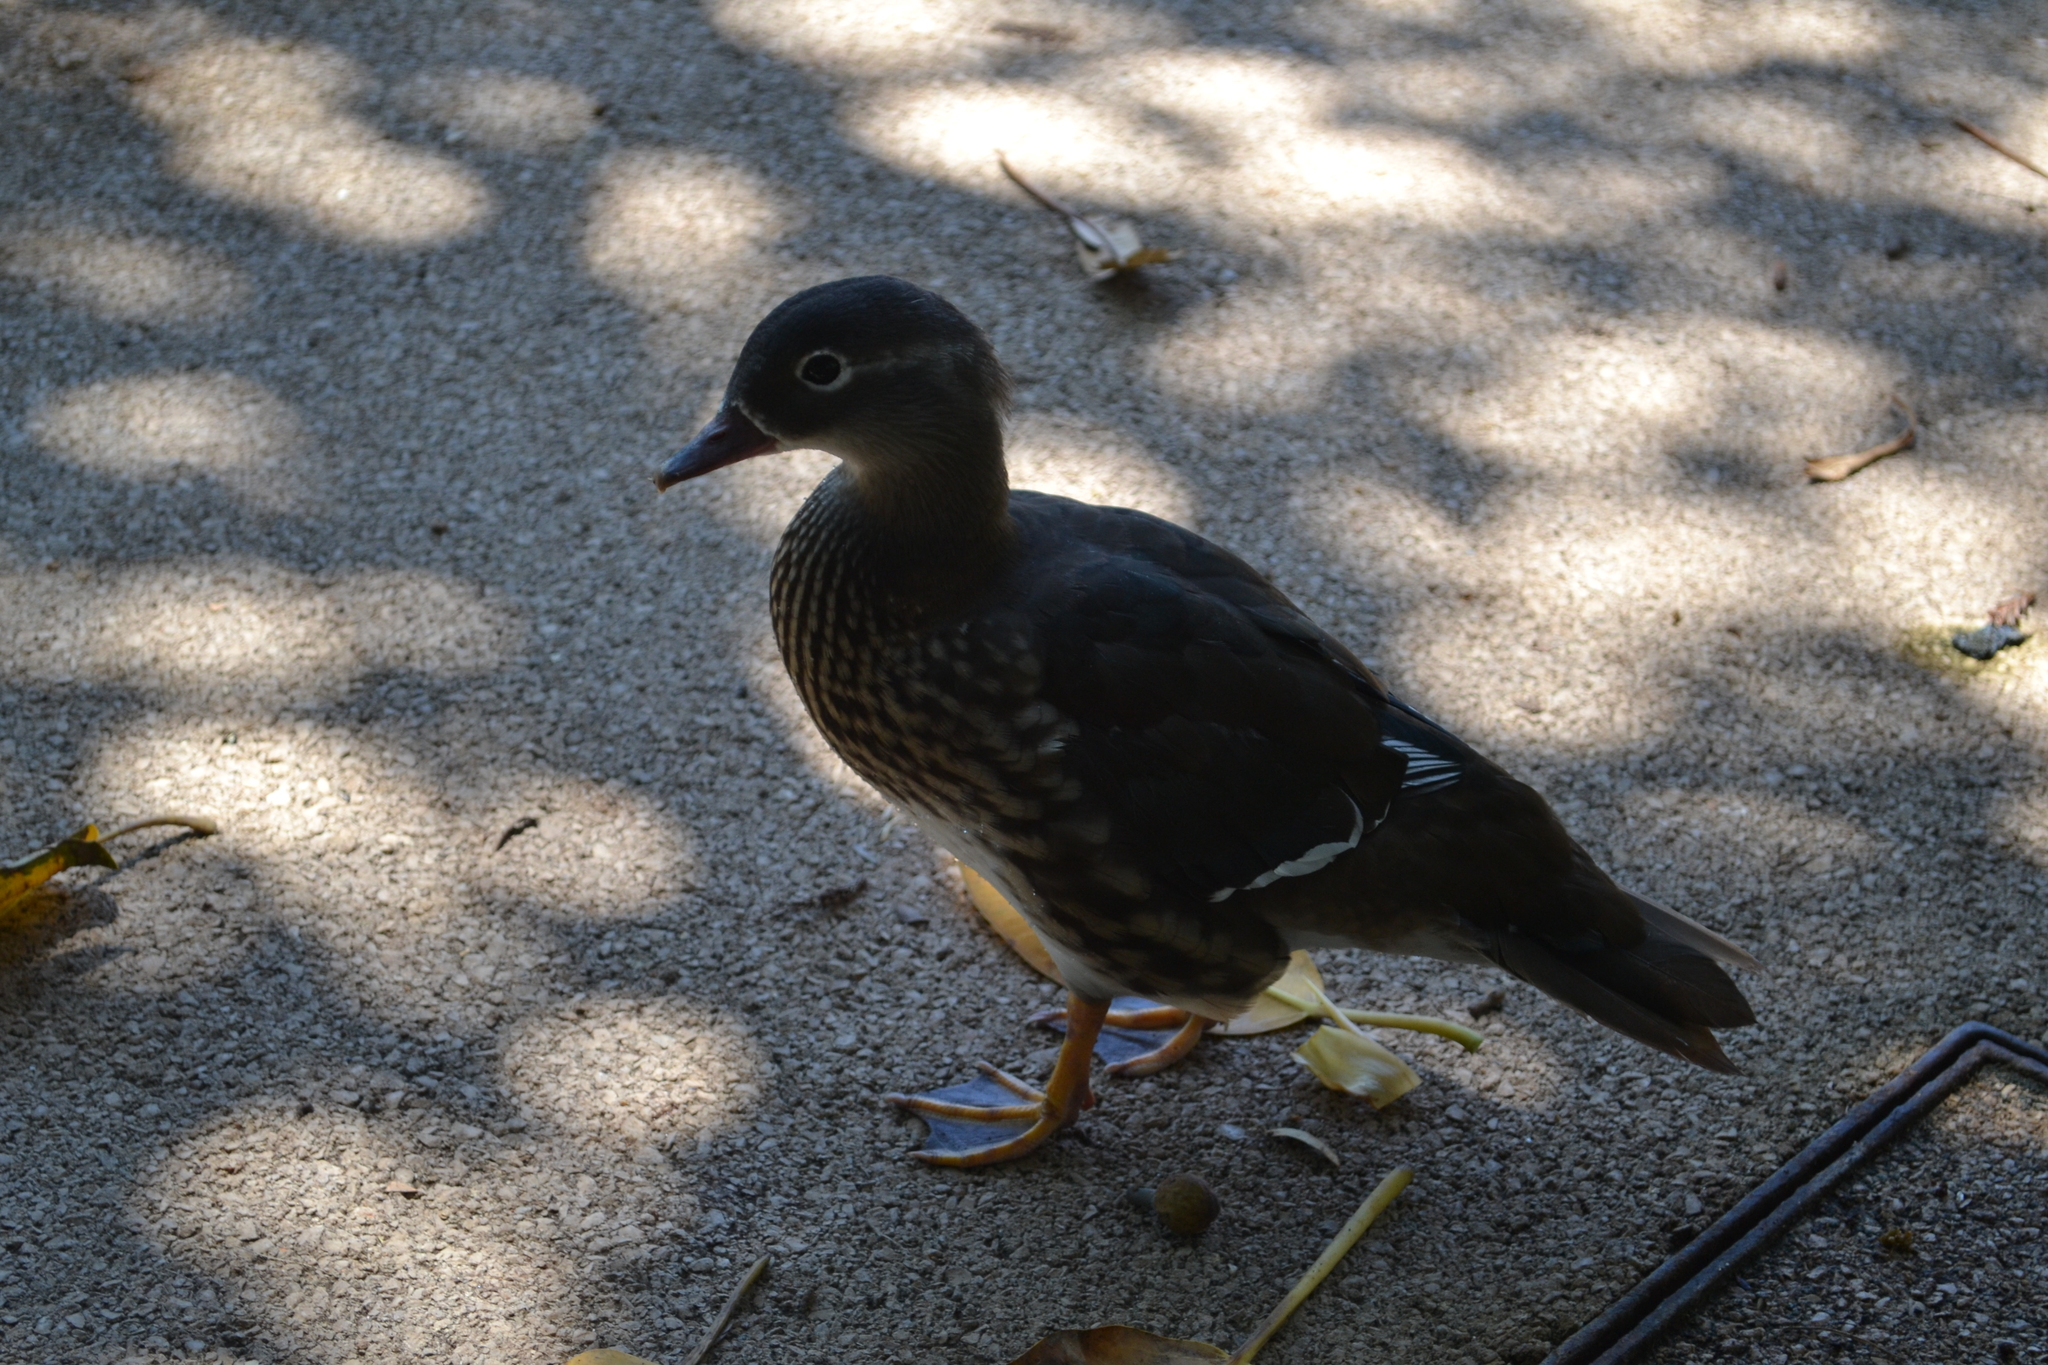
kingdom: Animalia
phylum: Chordata
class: Aves
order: Anseriformes
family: Anatidae
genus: Aix
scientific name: Aix galericulata
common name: Mandarin duck
